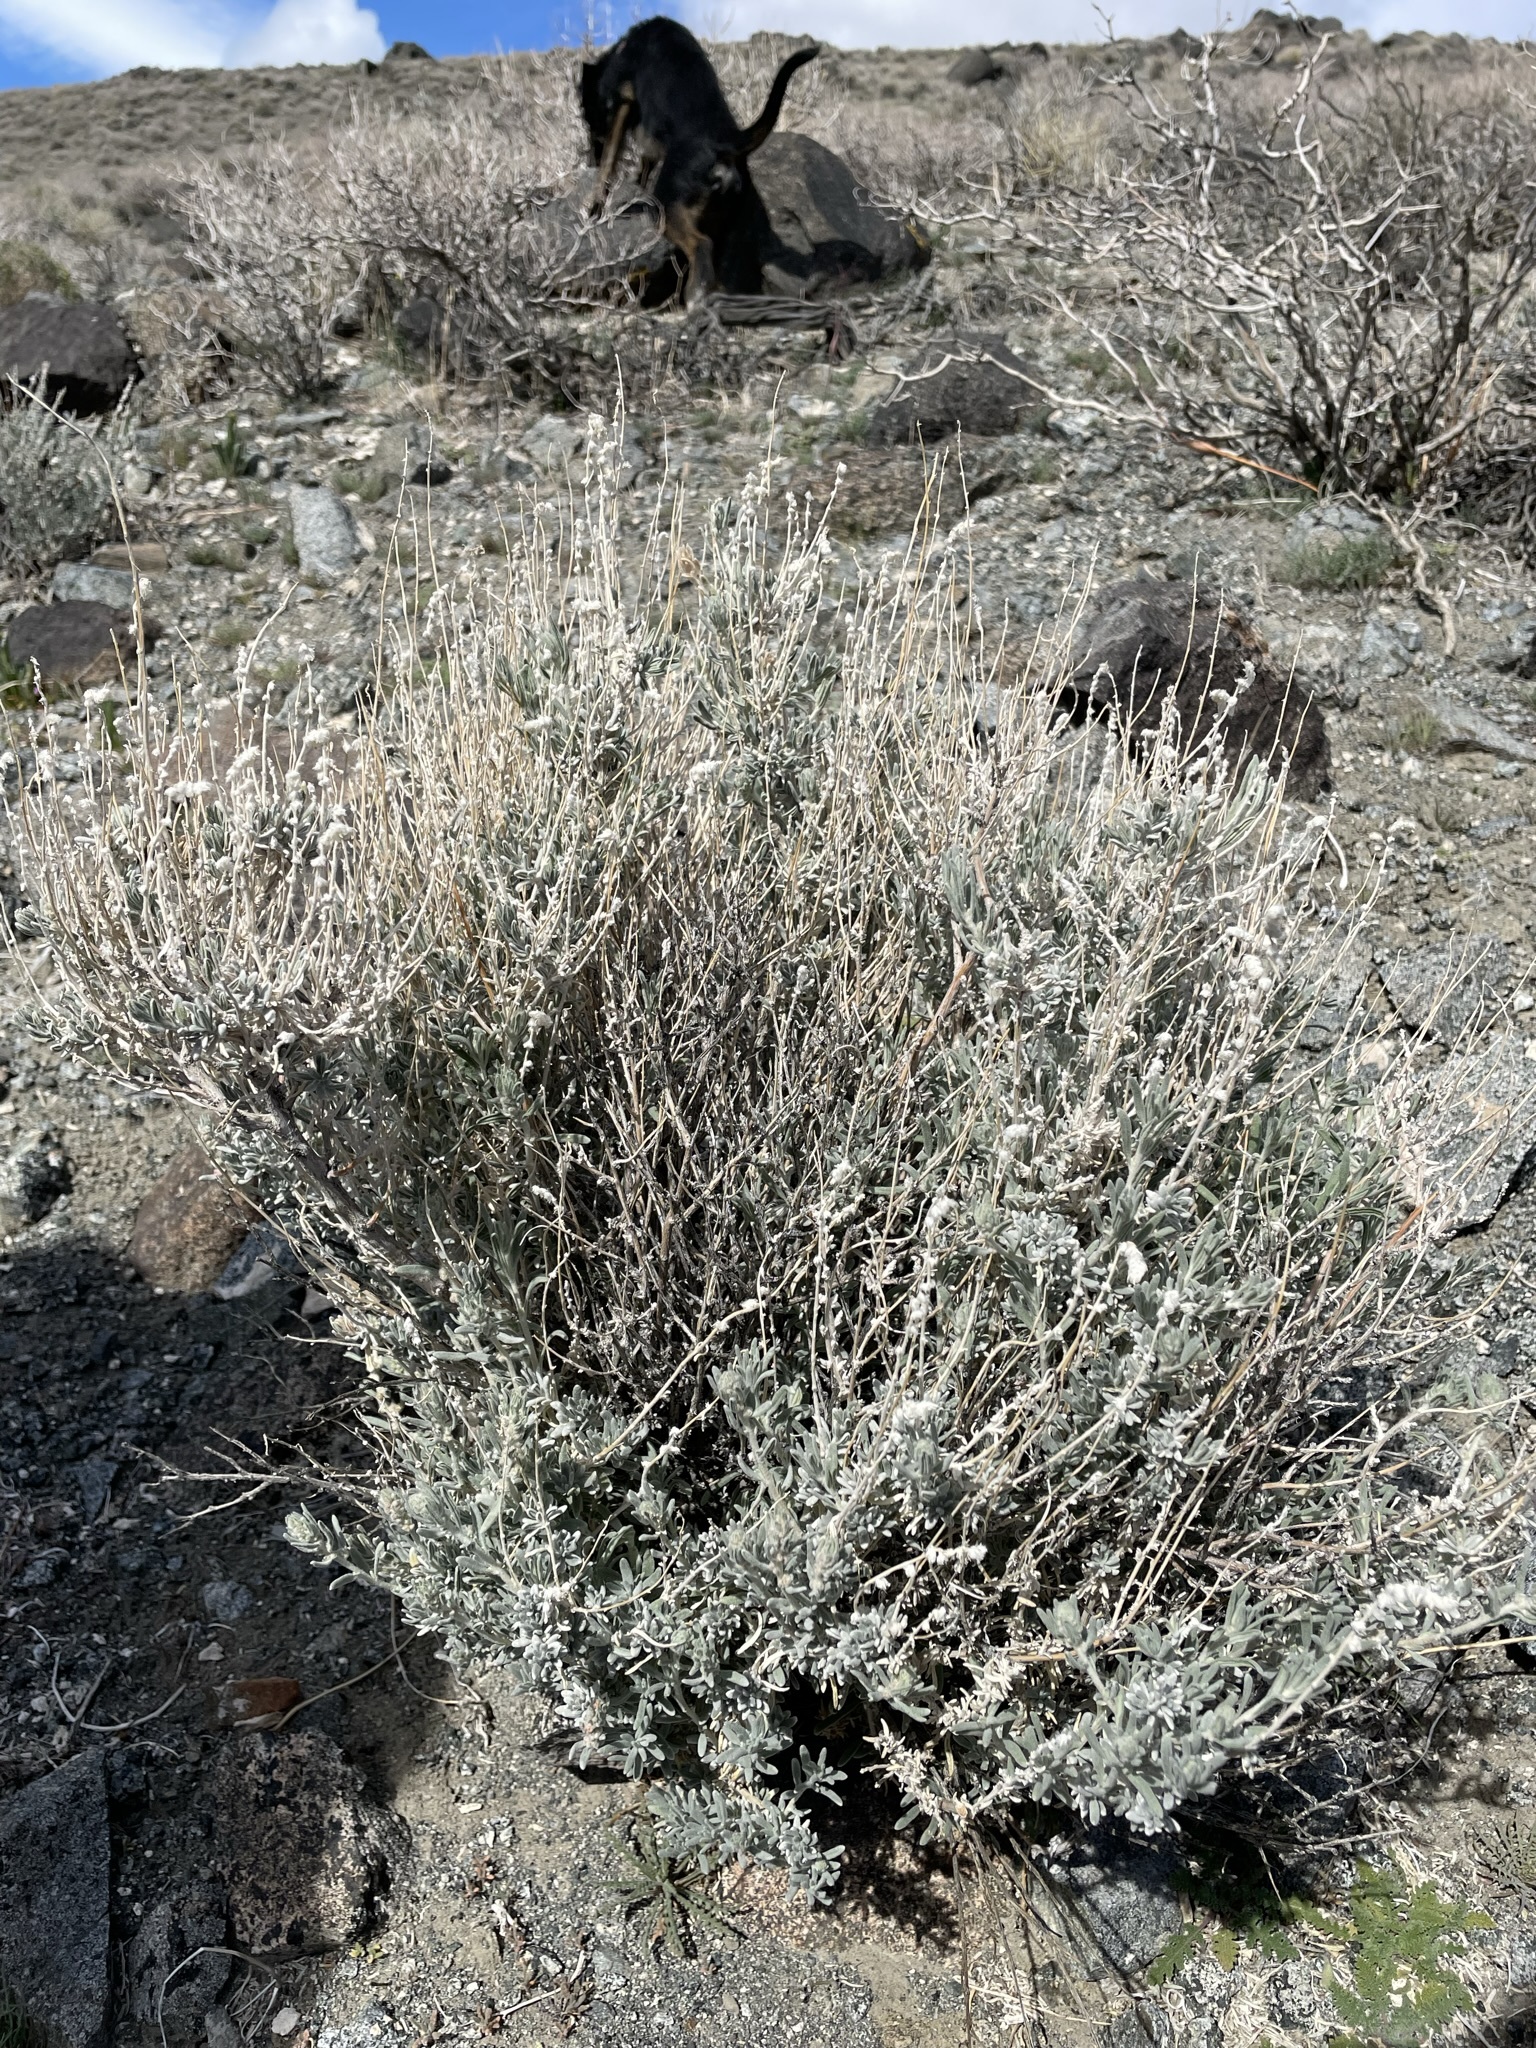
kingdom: Plantae
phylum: Tracheophyta
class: Magnoliopsida
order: Caryophyllales
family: Amaranthaceae
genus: Krascheninnikovia
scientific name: Krascheninnikovia lanata
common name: Winterfat
